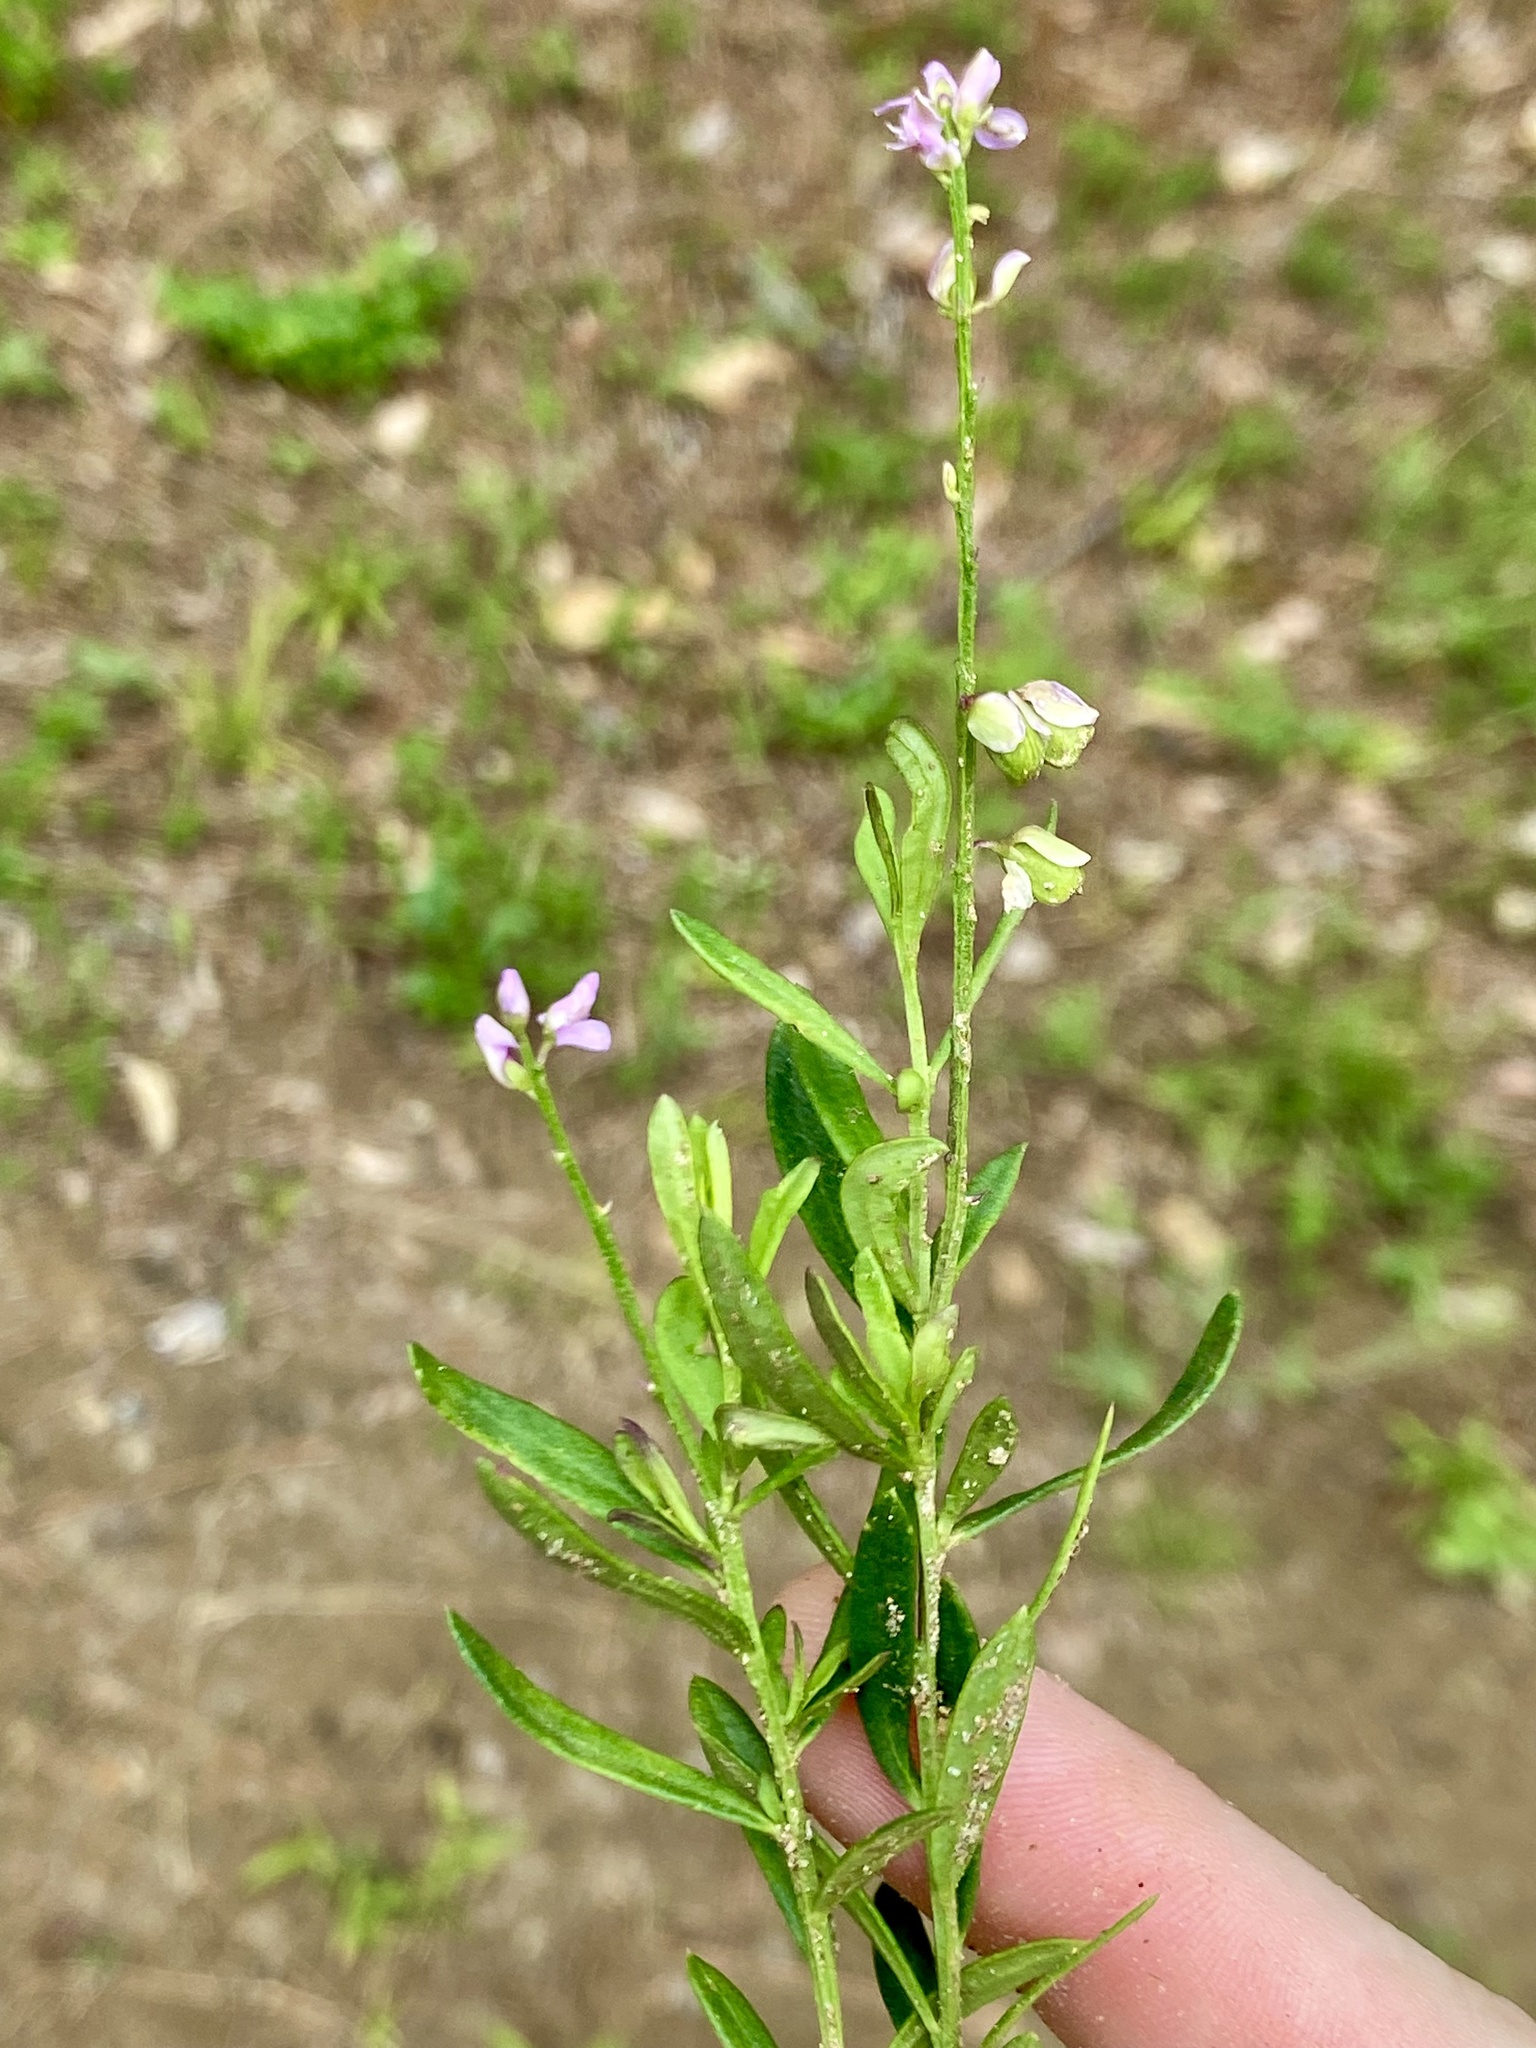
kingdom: Plantae
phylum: Tracheophyta
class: Magnoliopsida
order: Fabales
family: Polygalaceae
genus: Polygala
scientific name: Polygala polygama
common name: Bitter milkwort
